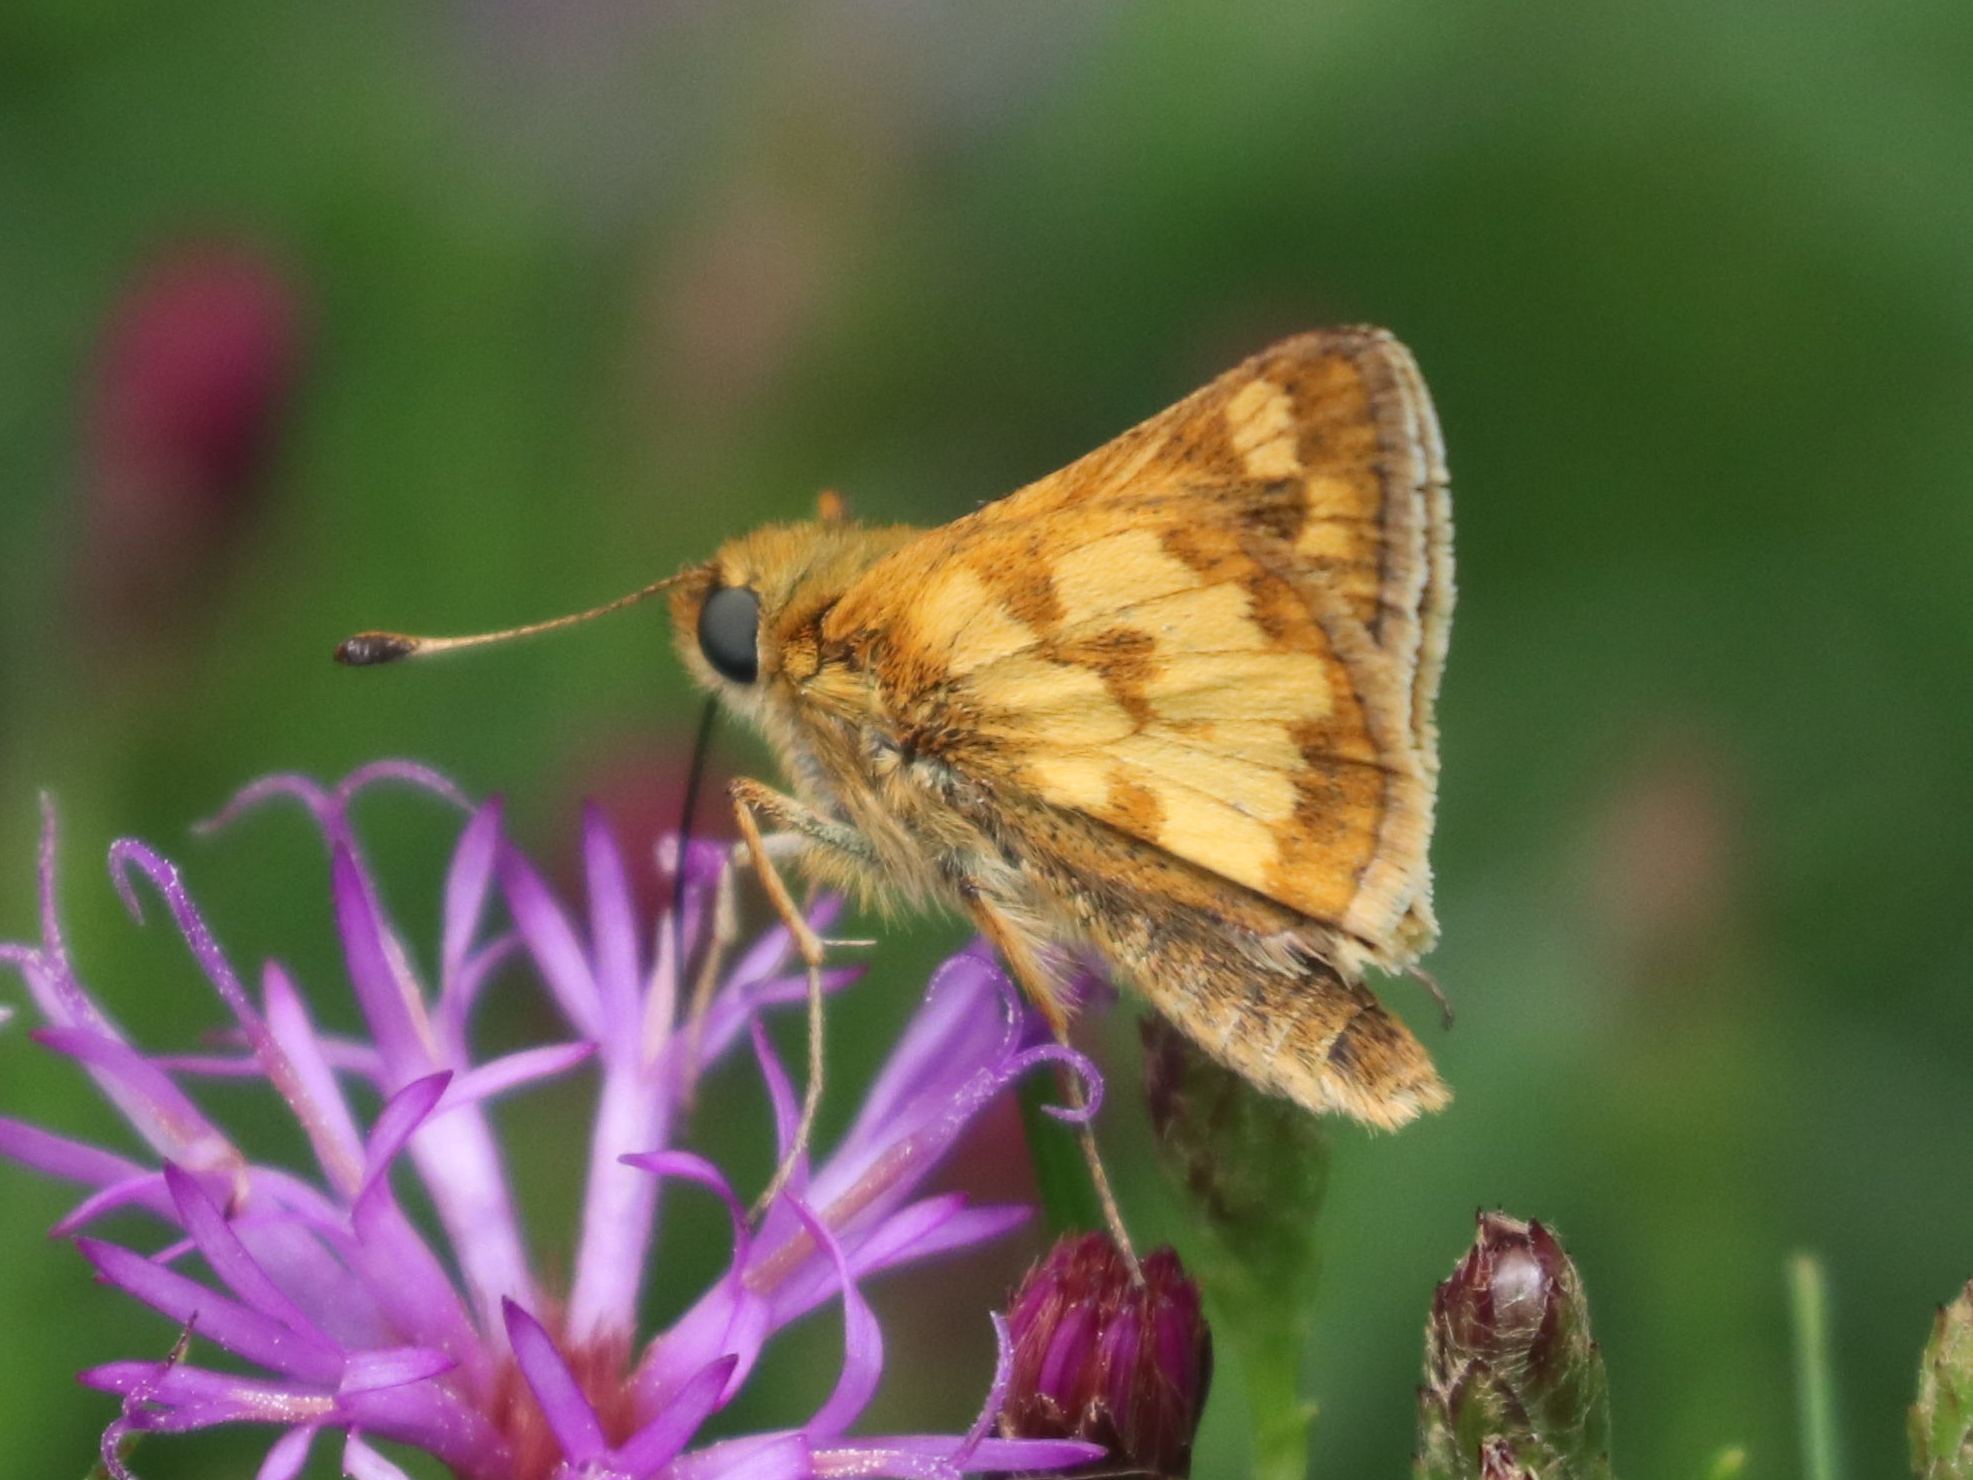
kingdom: Animalia
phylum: Arthropoda
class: Insecta
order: Lepidoptera
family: Hesperiidae
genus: Polites
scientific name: Polites coras
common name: Peck's skipper
